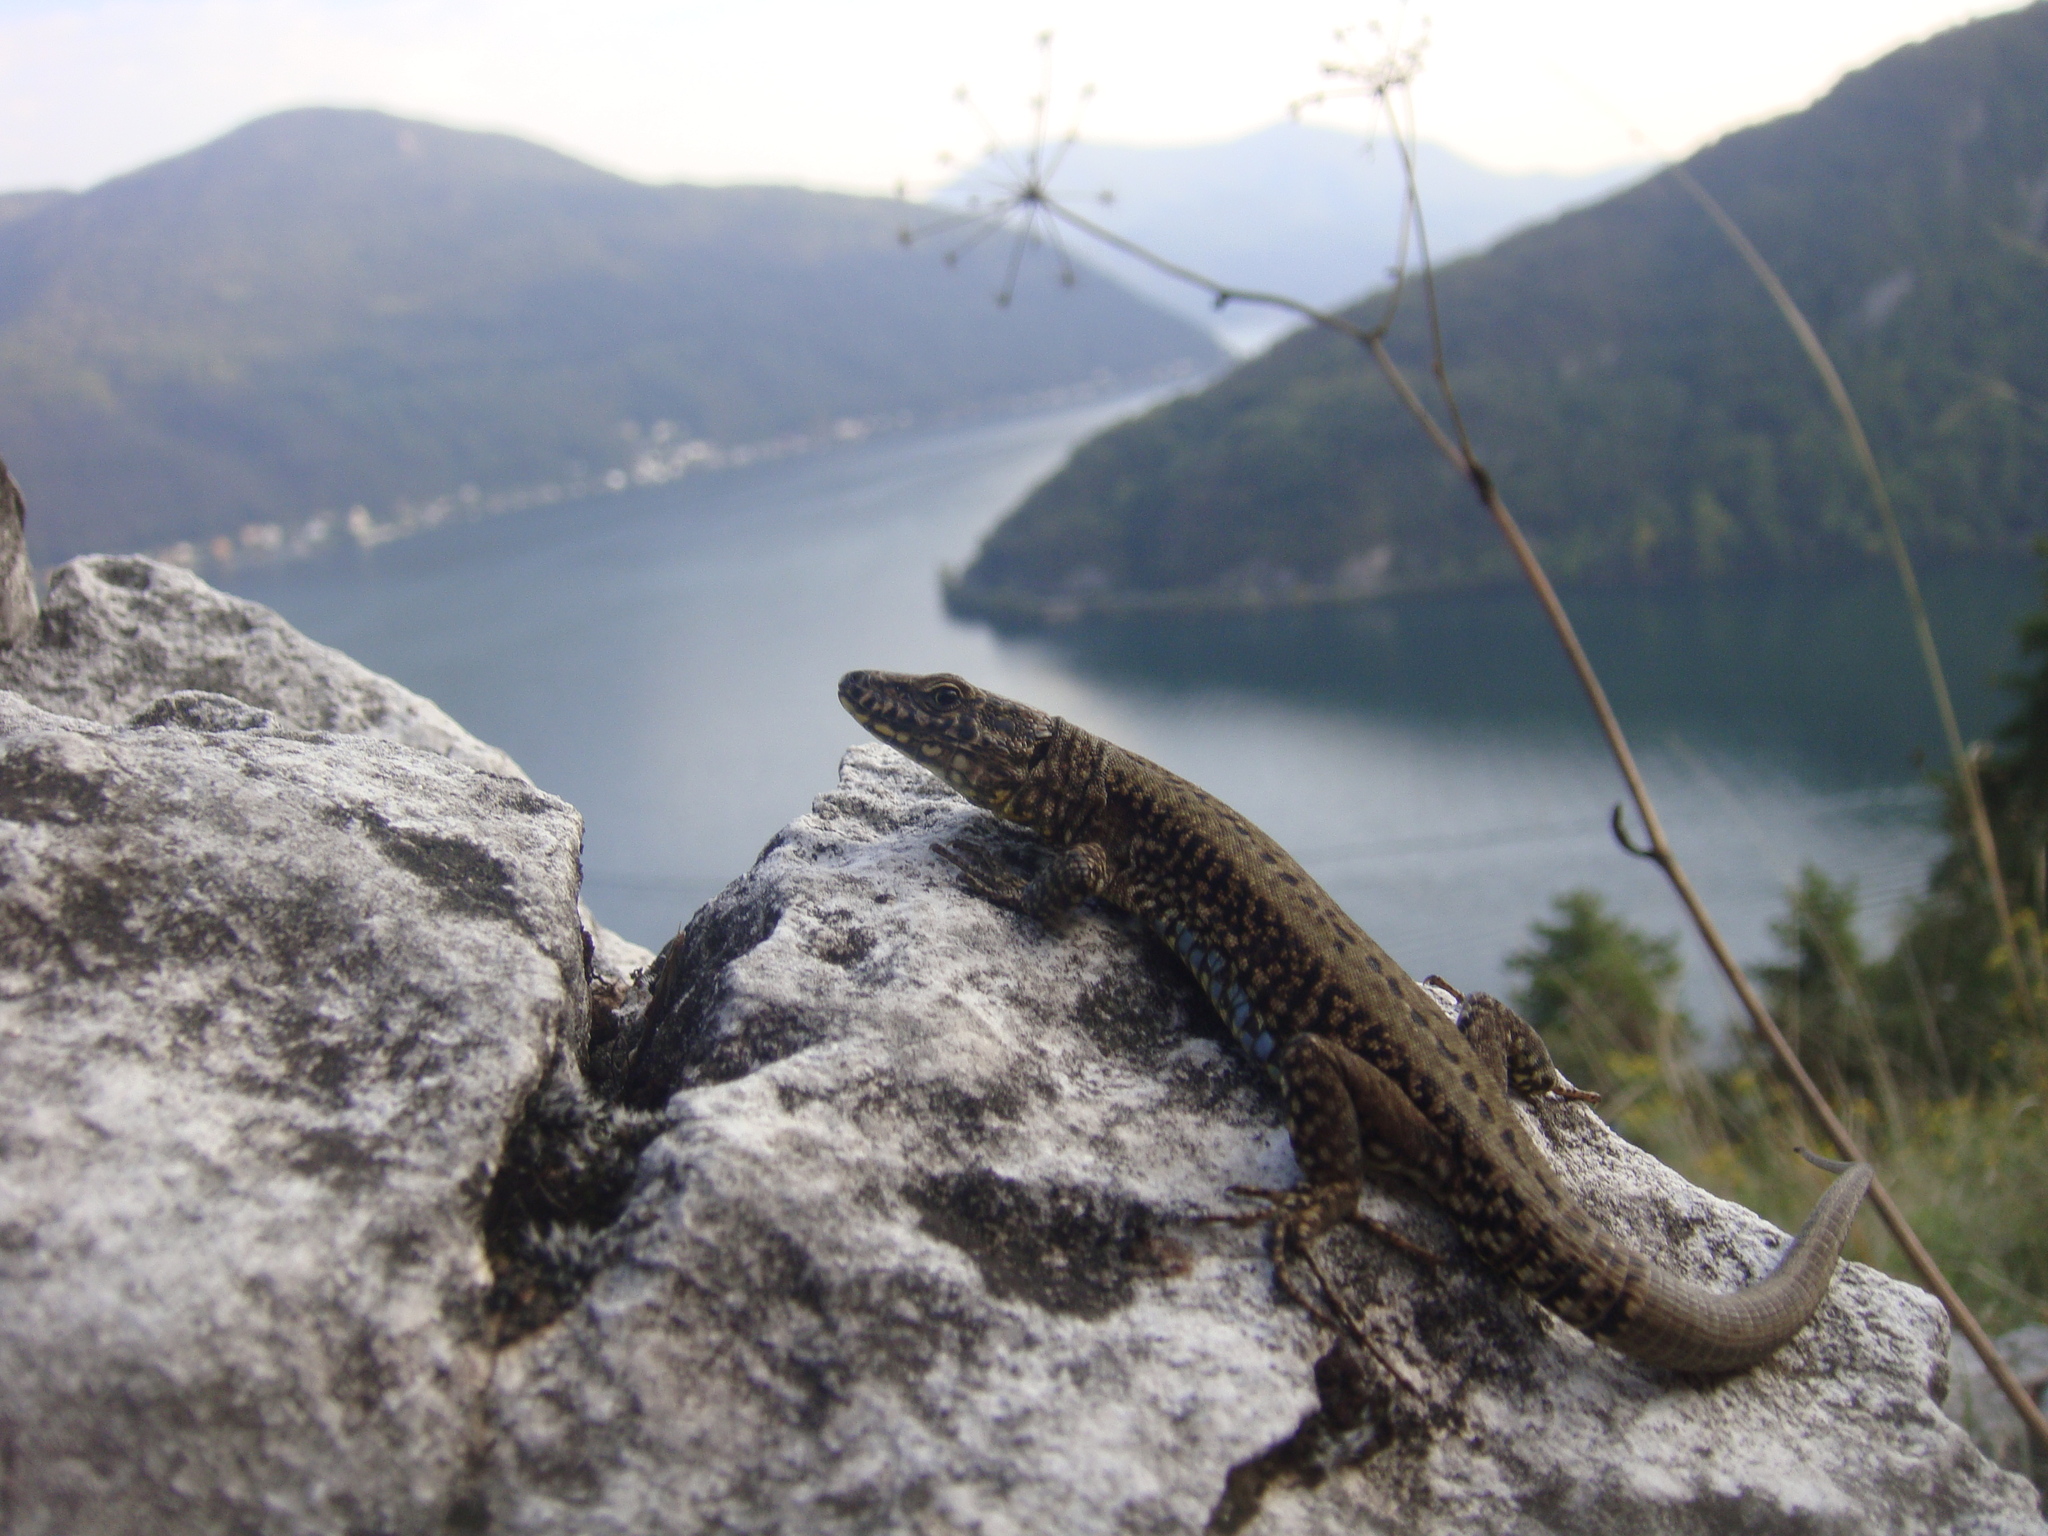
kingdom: Animalia
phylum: Chordata
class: Squamata
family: Lacertidae
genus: Podarcis
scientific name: Podarcis muralis
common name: Common wall lizard
